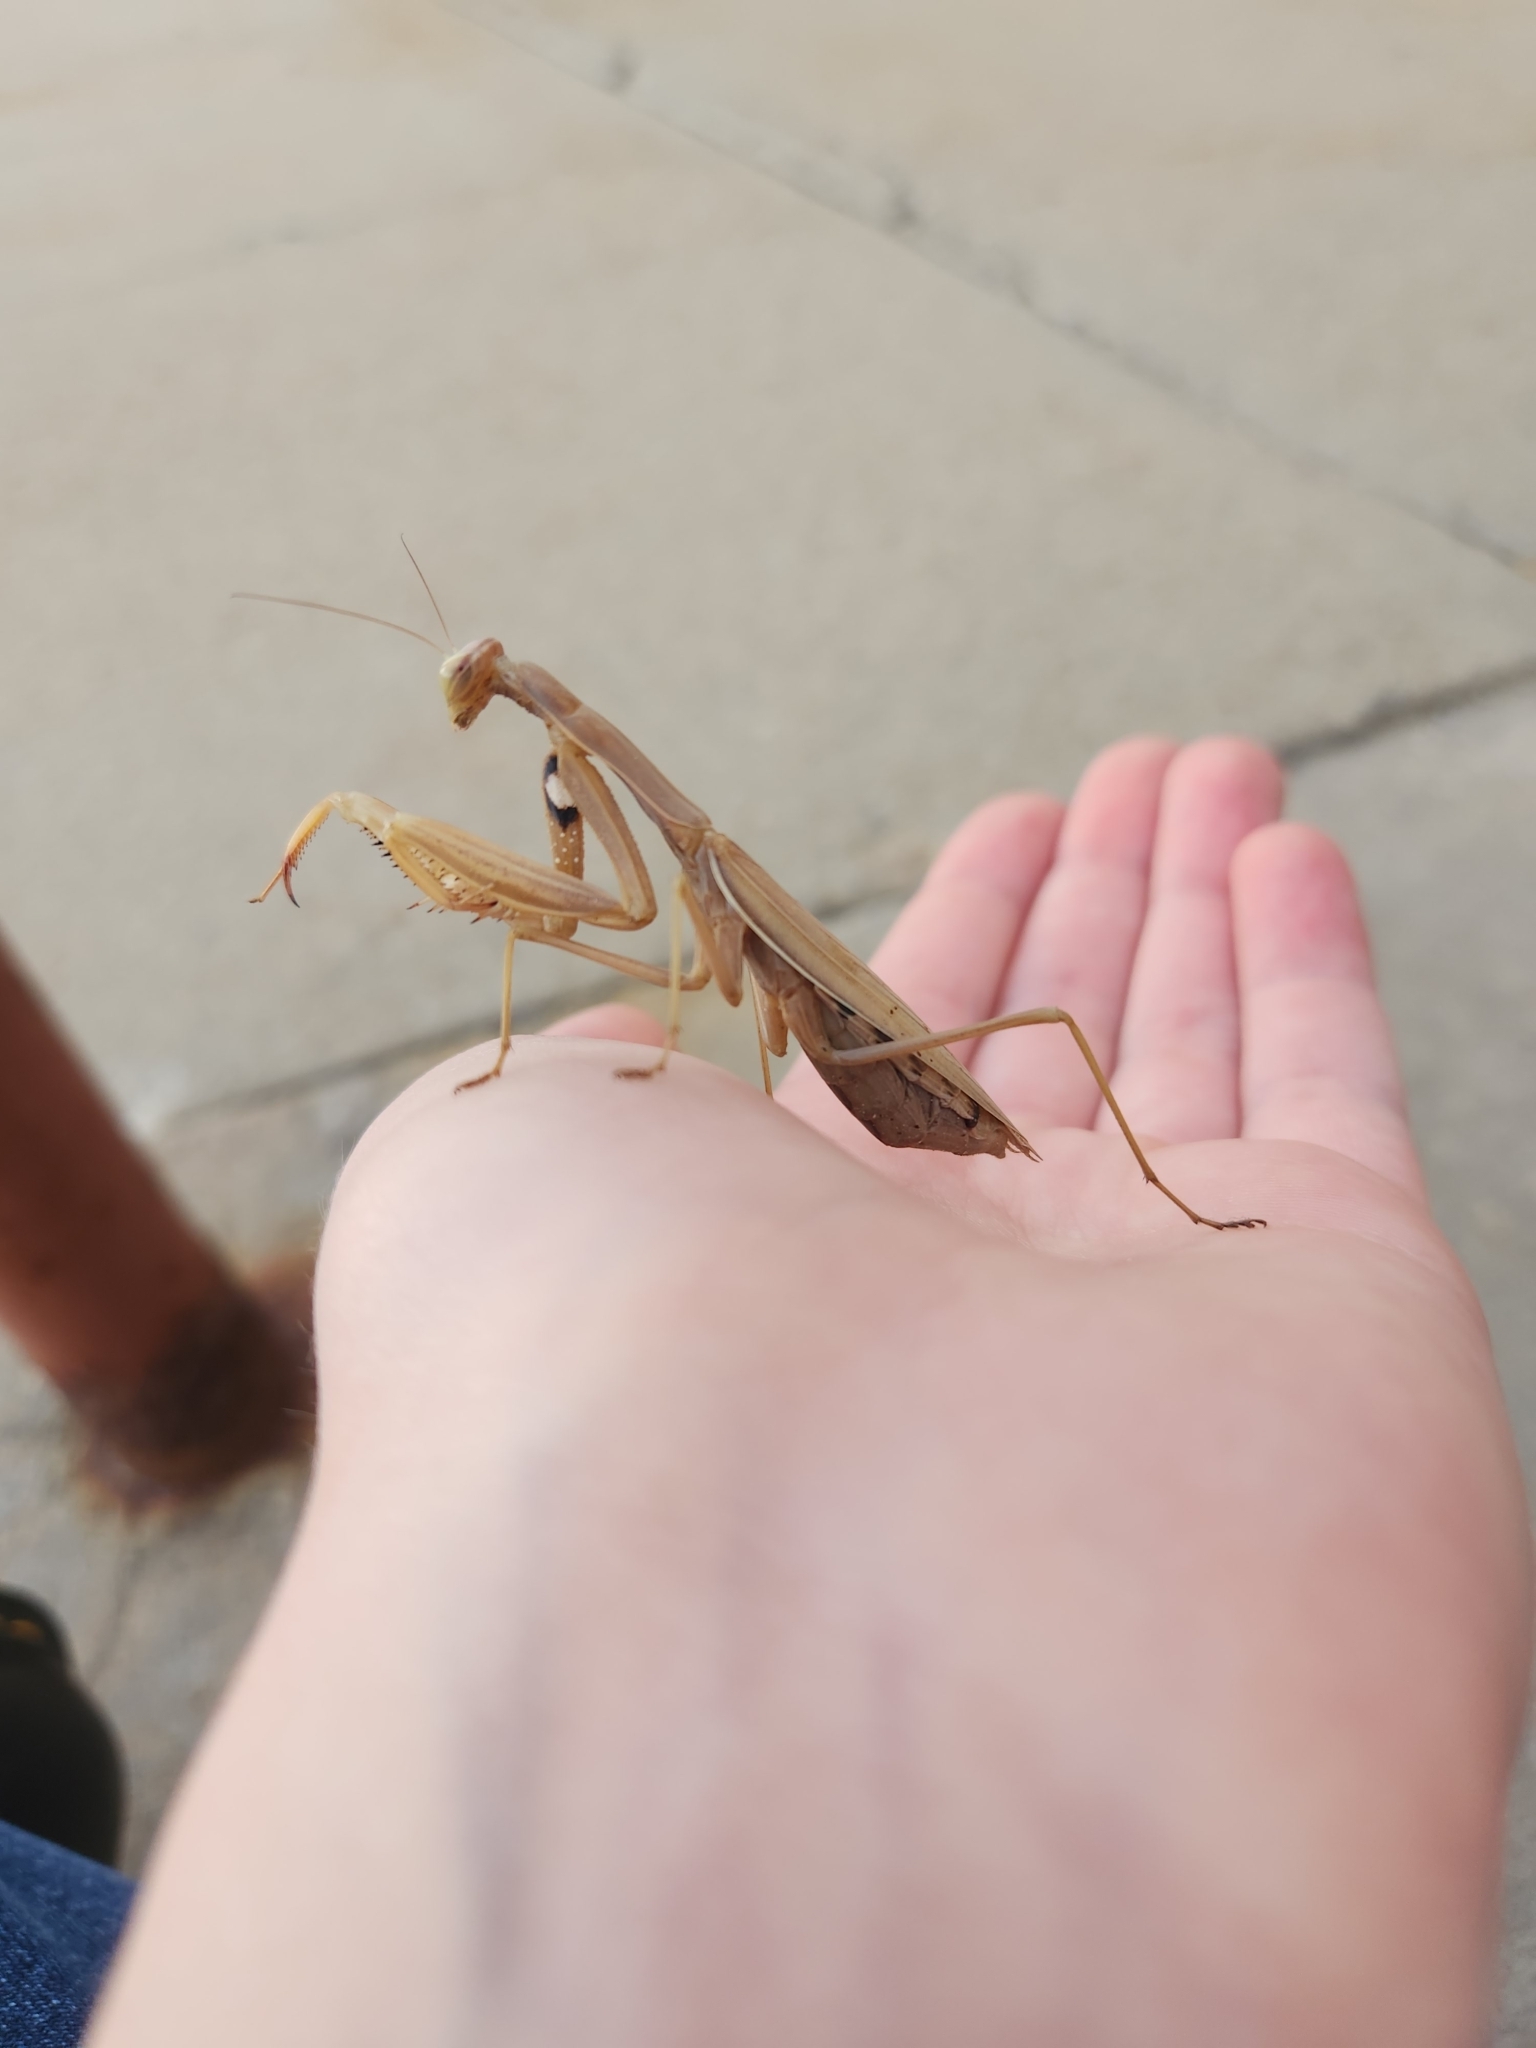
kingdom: Animalia
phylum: Arthropoda
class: Insecta
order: Mantodea
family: Mantidae
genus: Mantis
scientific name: Mantis religiosa
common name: Praying mantis
